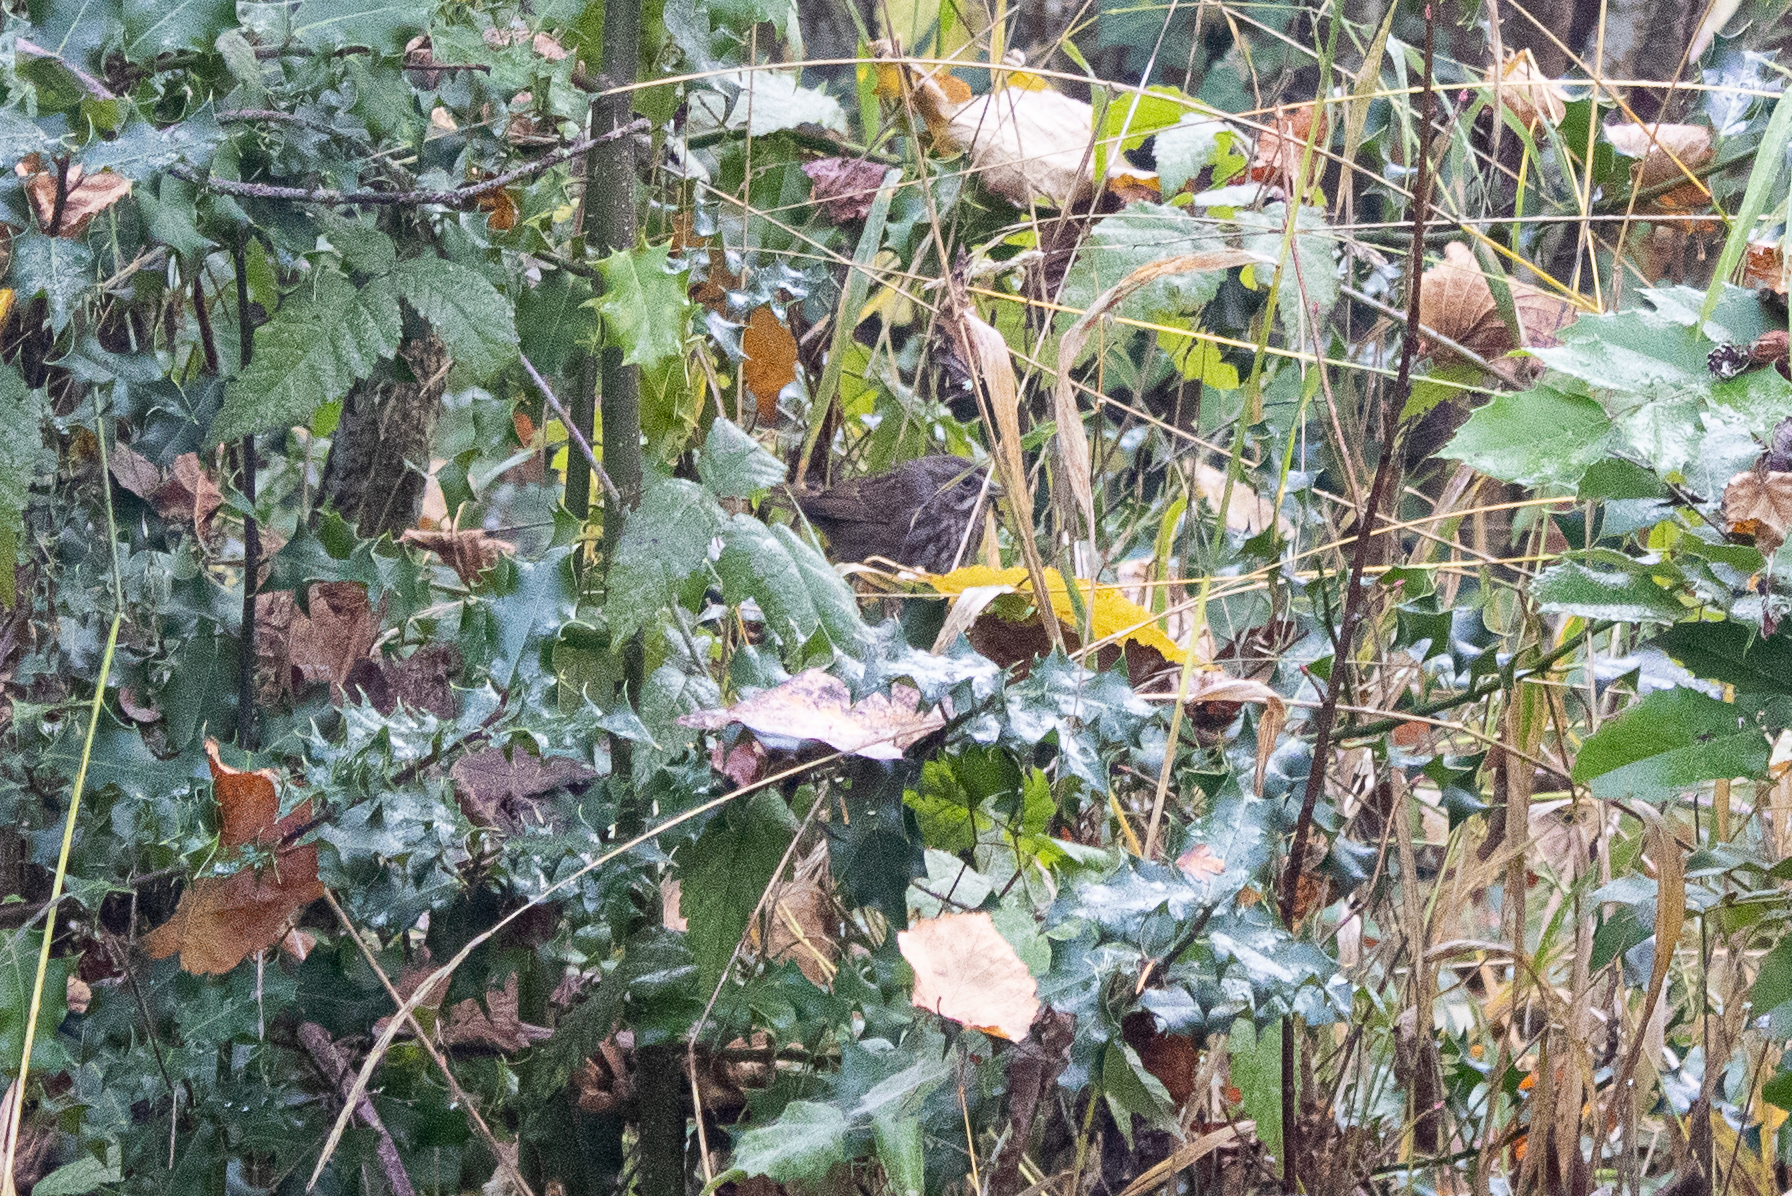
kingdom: Animalia
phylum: Chordata
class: Aves
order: Passeriformes
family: Passerellidae
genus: Melospiza
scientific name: Melospiza melodia
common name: Song sparrow
